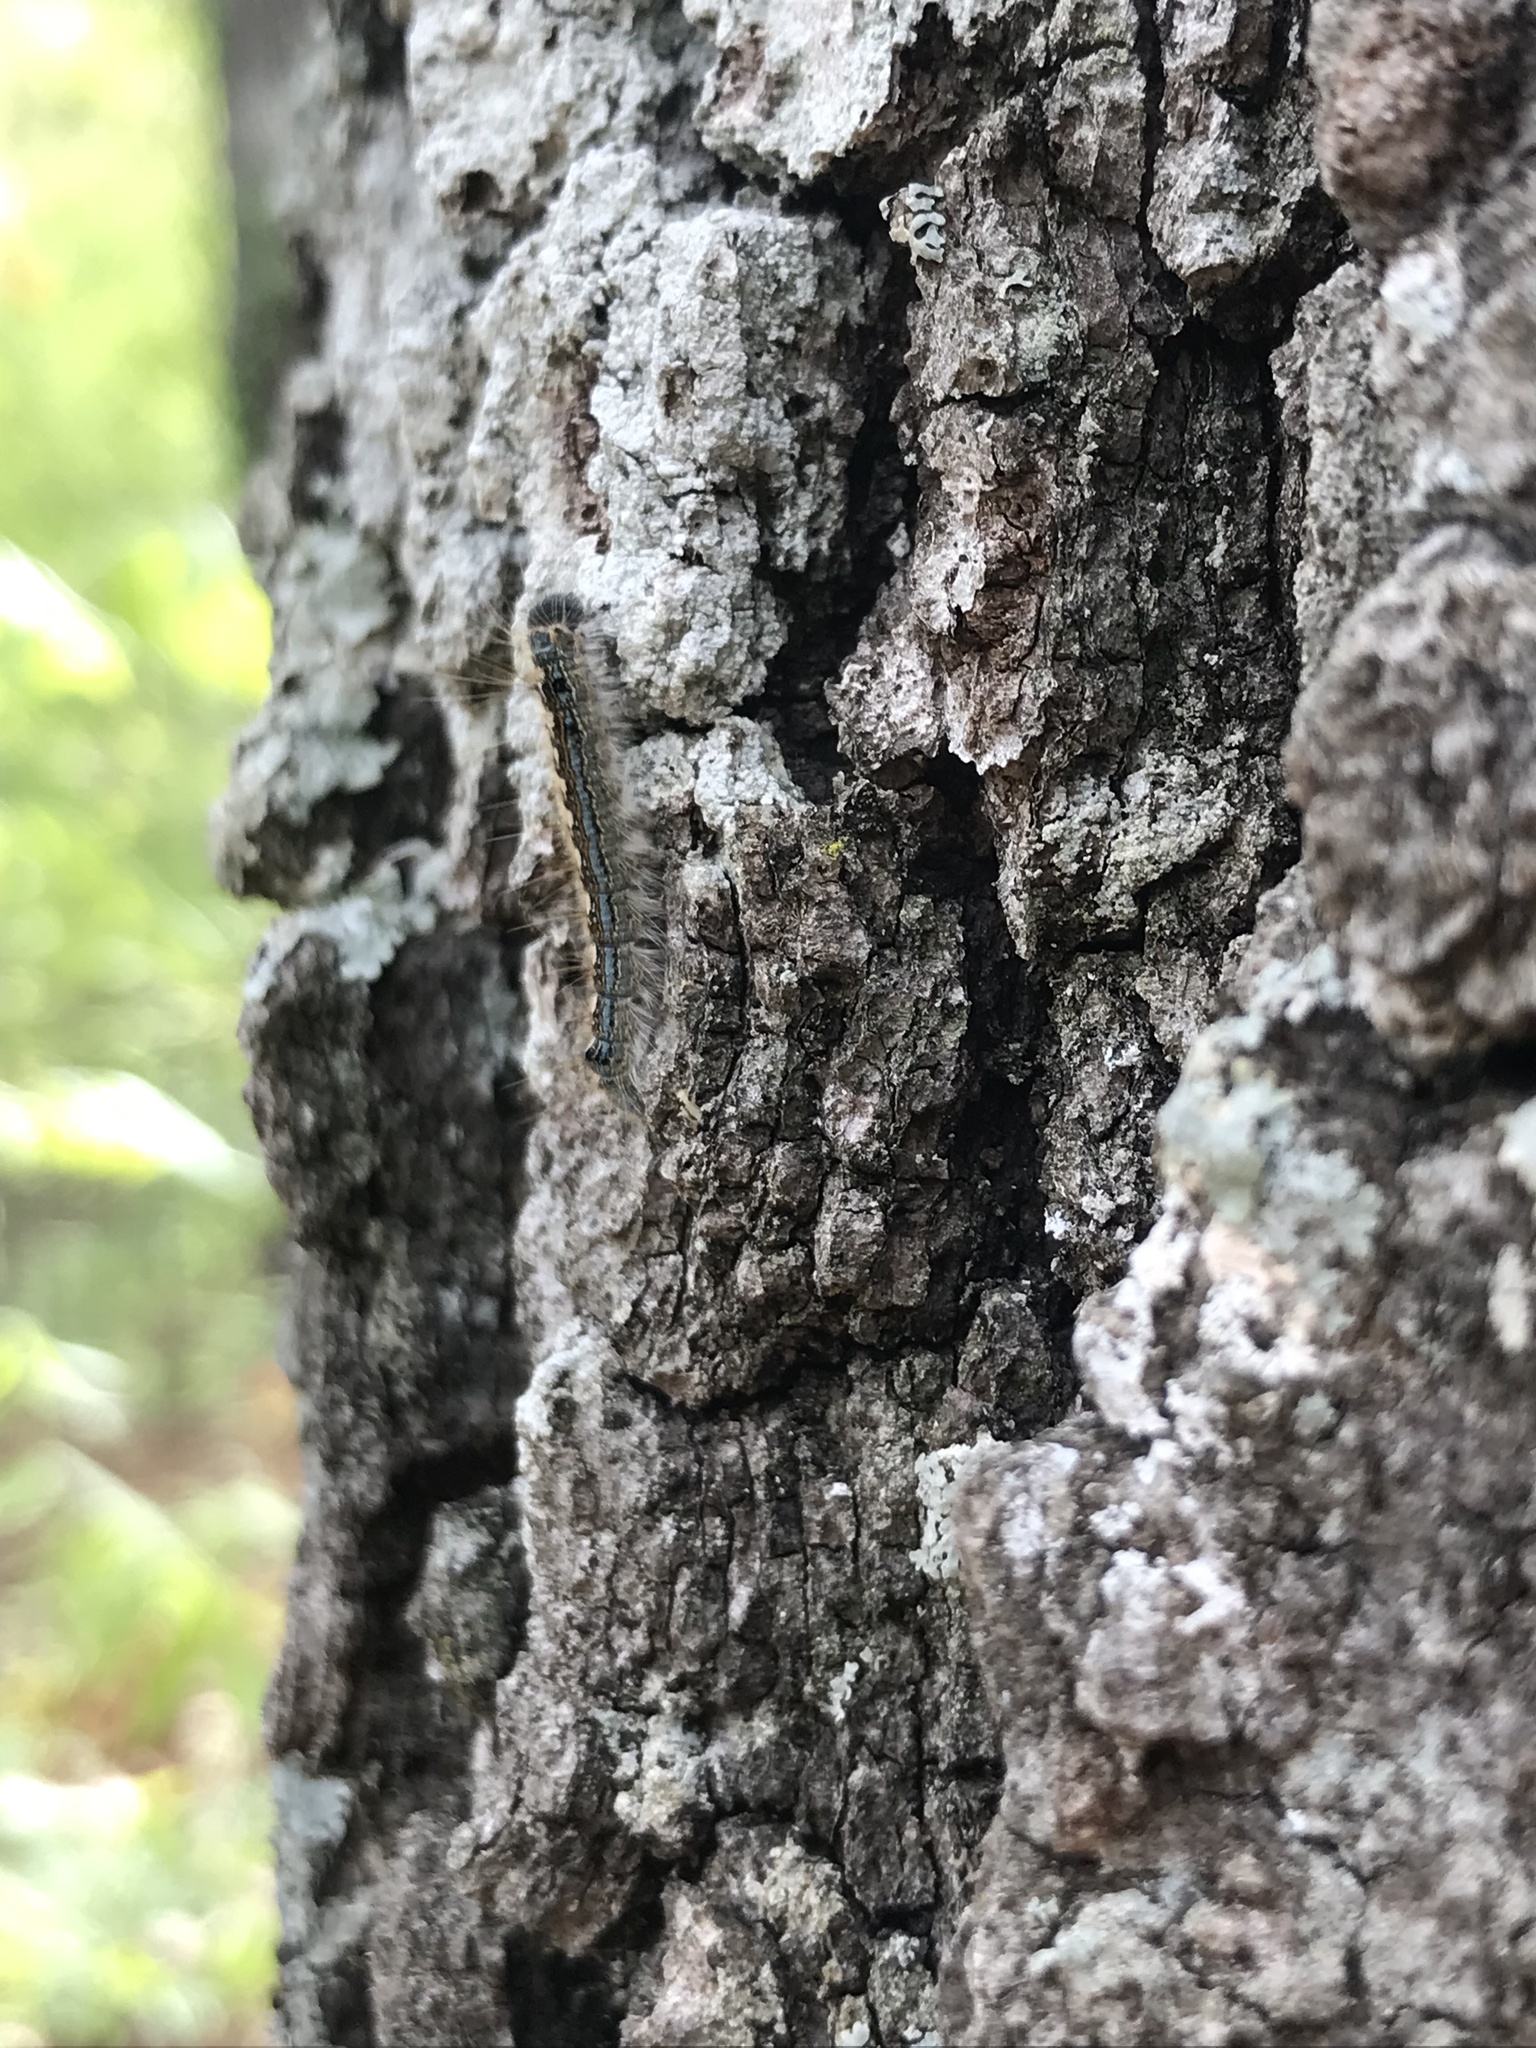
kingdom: Animalia
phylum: Arthropoda
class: Insecta
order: Lepidoptera
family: Lasiocampidae
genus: Malacosoma
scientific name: Malacosoma disstria
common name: Forest tent caterpillar
